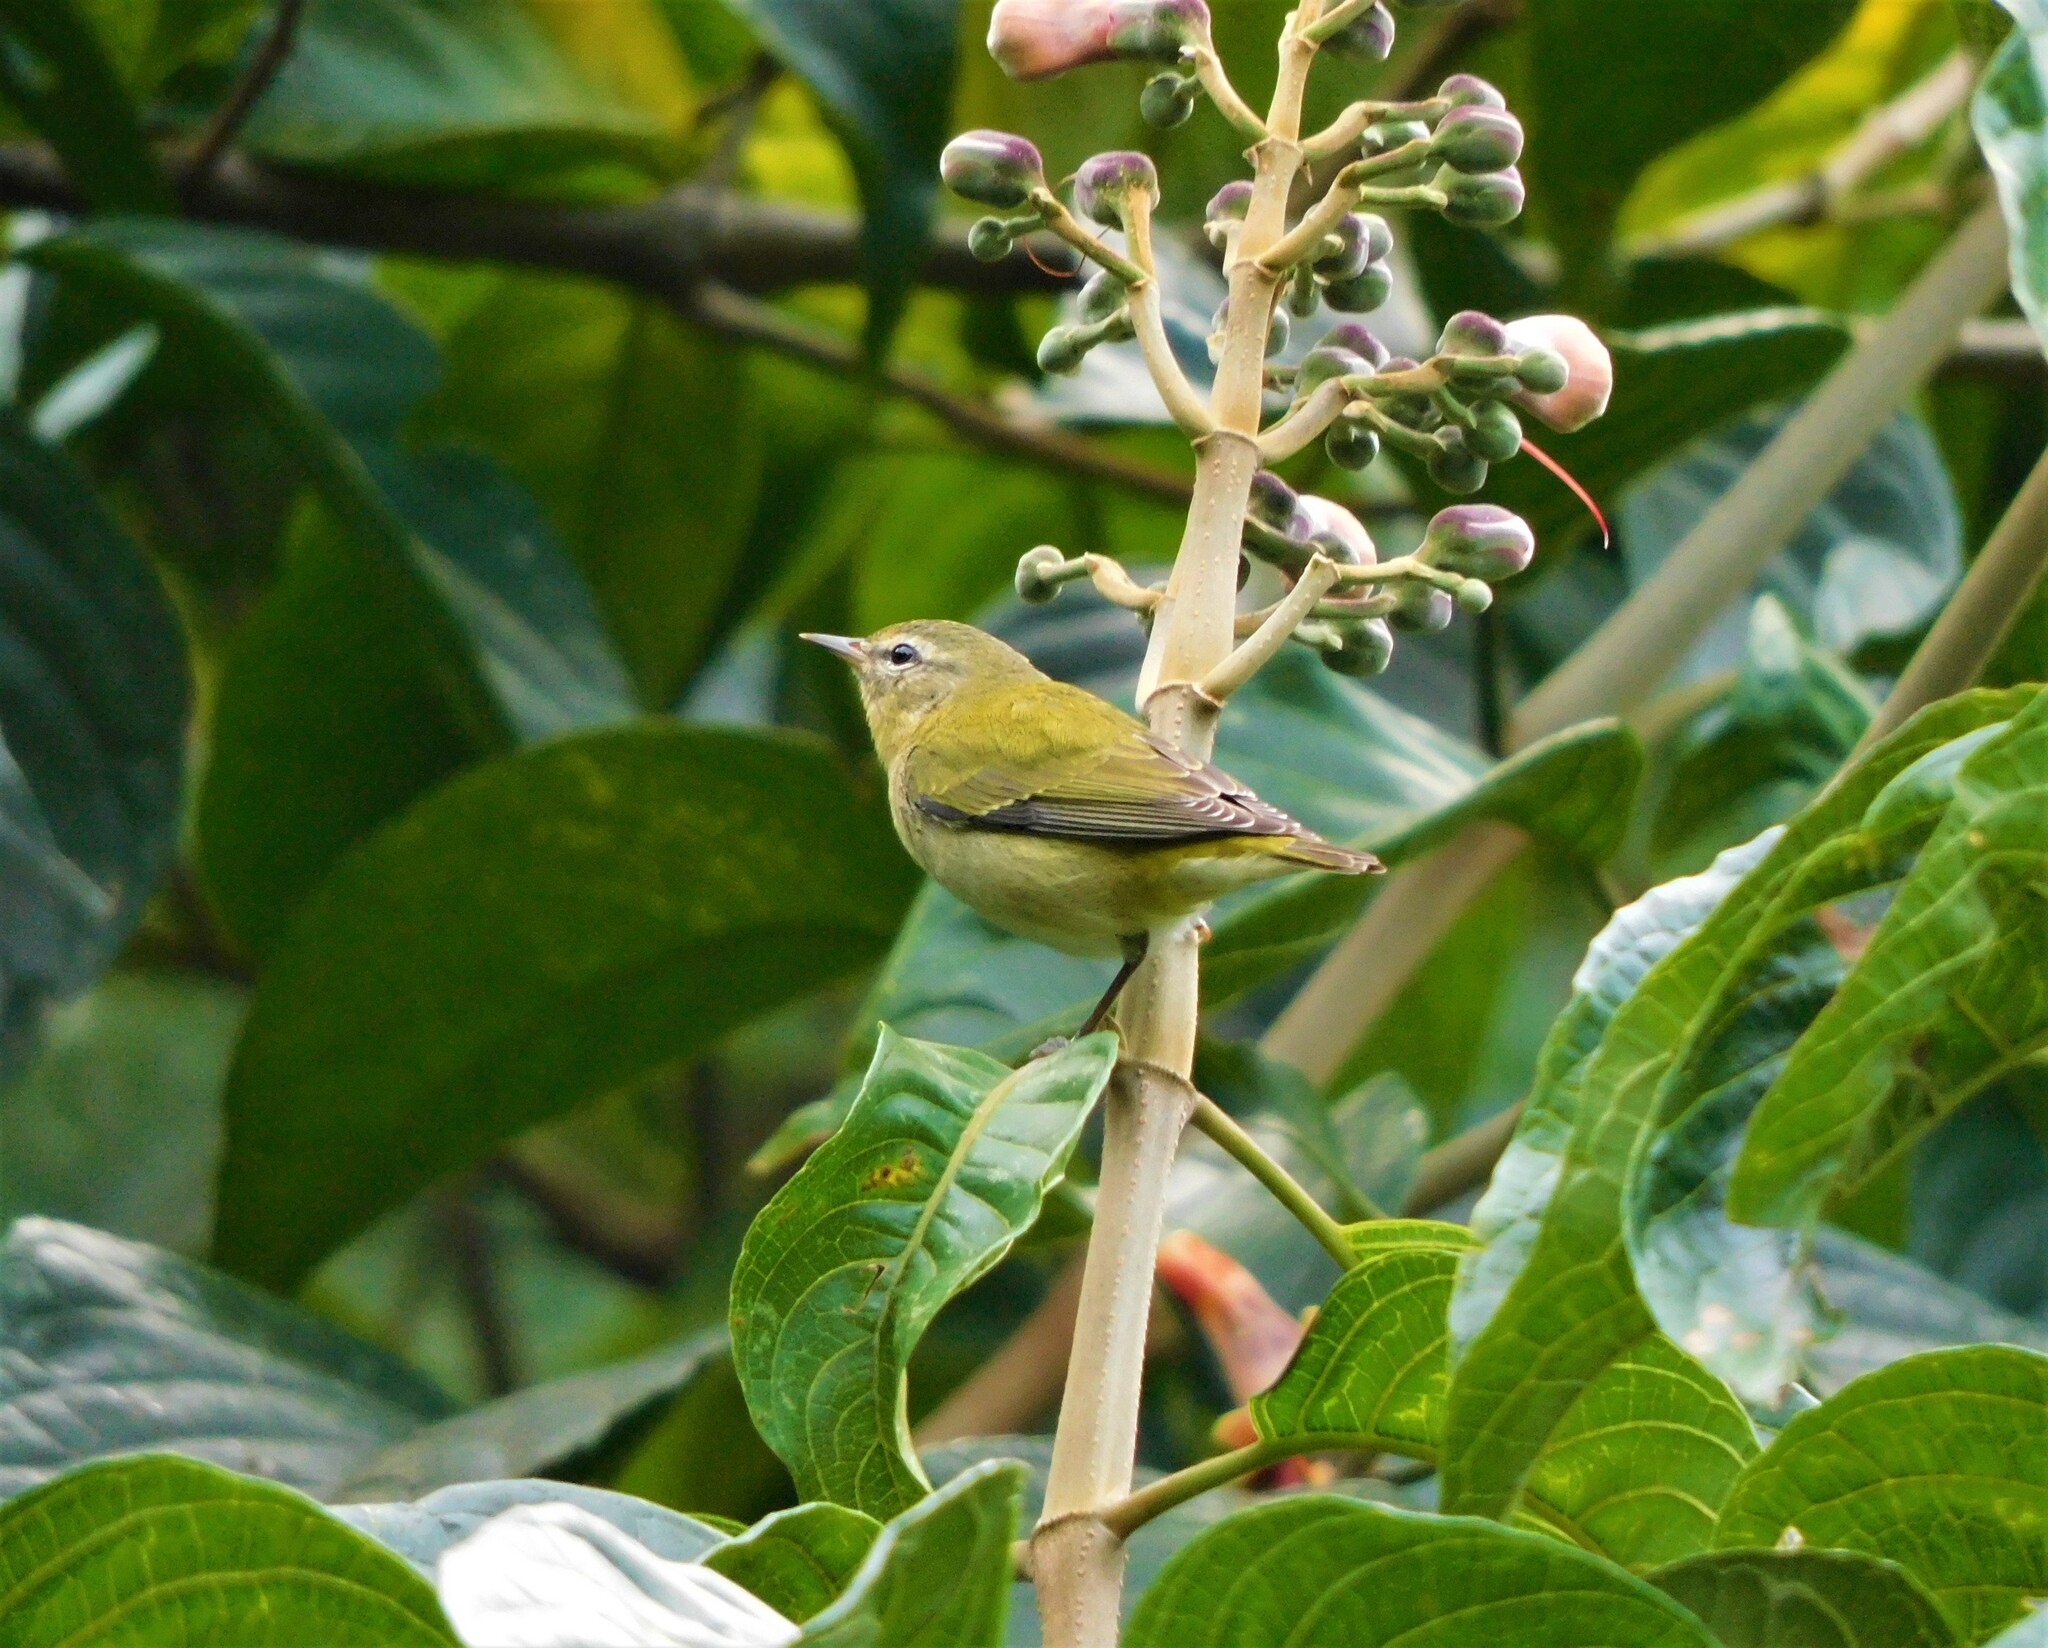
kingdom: Animalia
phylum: Chordata
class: Aves
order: Passeriformes
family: Parulidae
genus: Leiothlypis
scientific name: Leiothlypis peregrina
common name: Tennessee warbler
